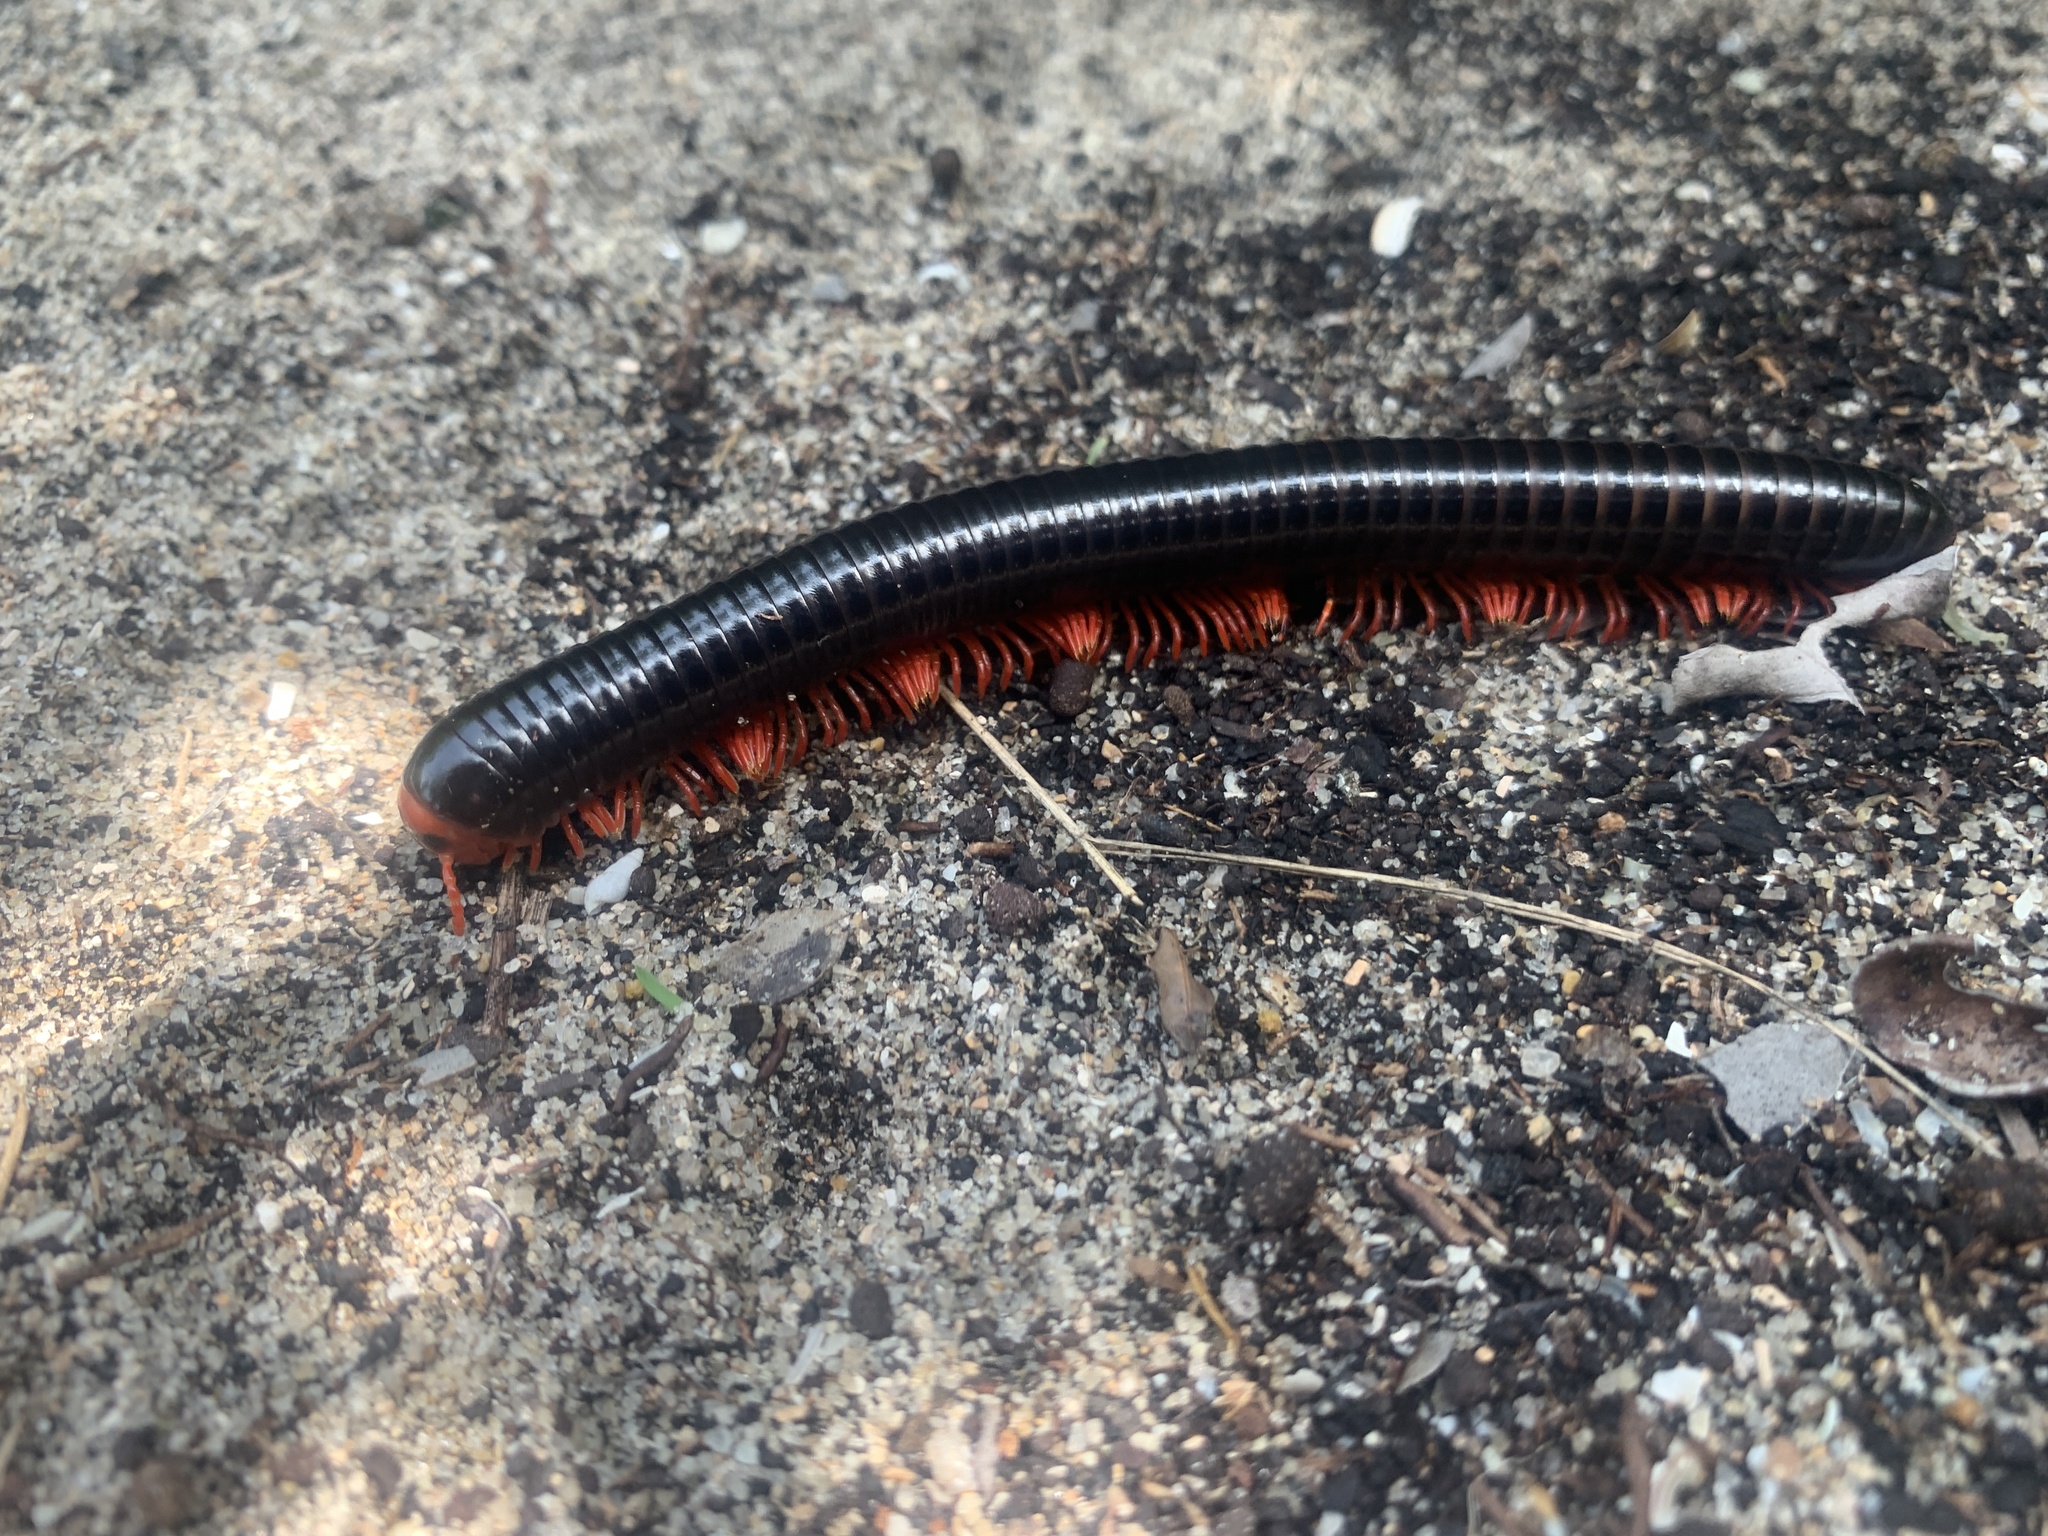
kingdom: Animalia
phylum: Arthropoda
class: Diplopoda
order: Spirobolida
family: Pachybolidae
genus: Epibolus
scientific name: Epibolus pulchripes
